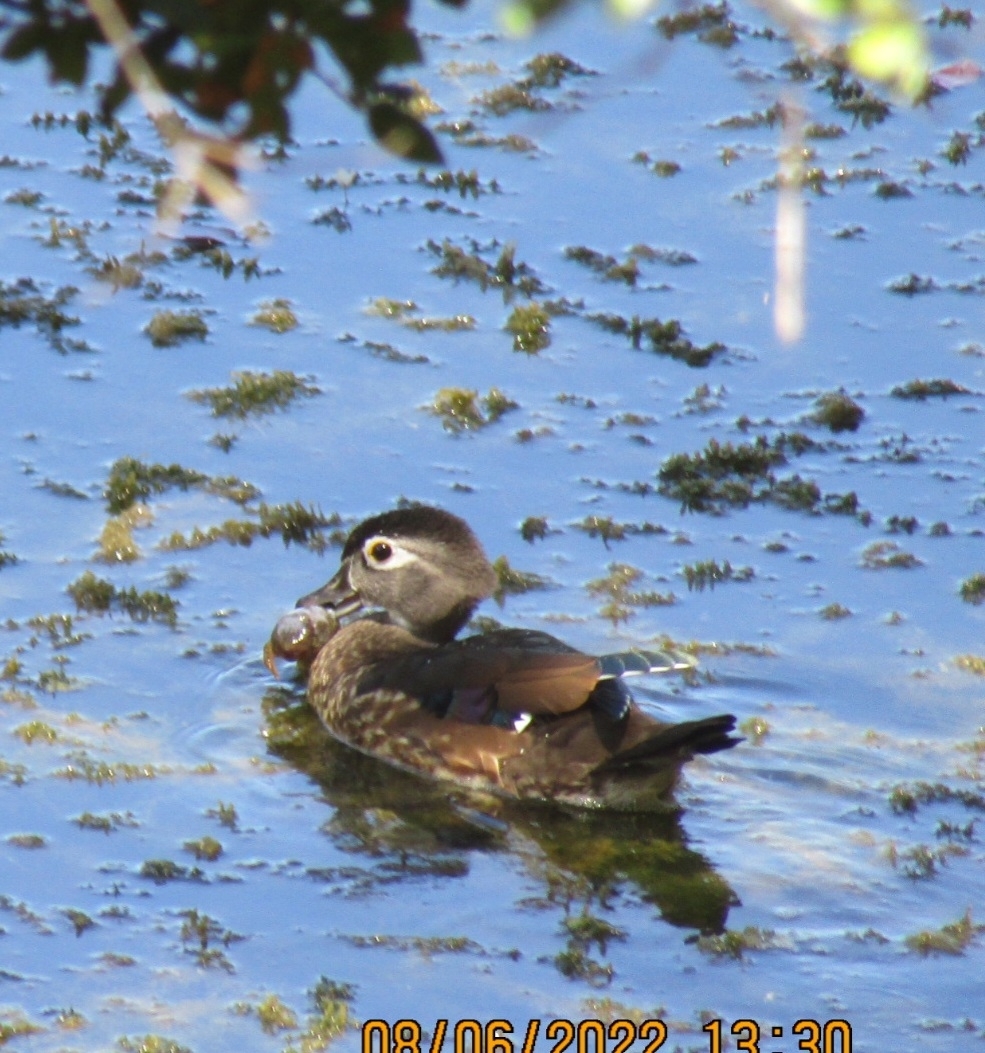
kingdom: Animalia
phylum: Chordata
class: Aves
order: Anseriformes
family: Anatidae
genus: Aix
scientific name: Aix sponsa
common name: Wood duck
